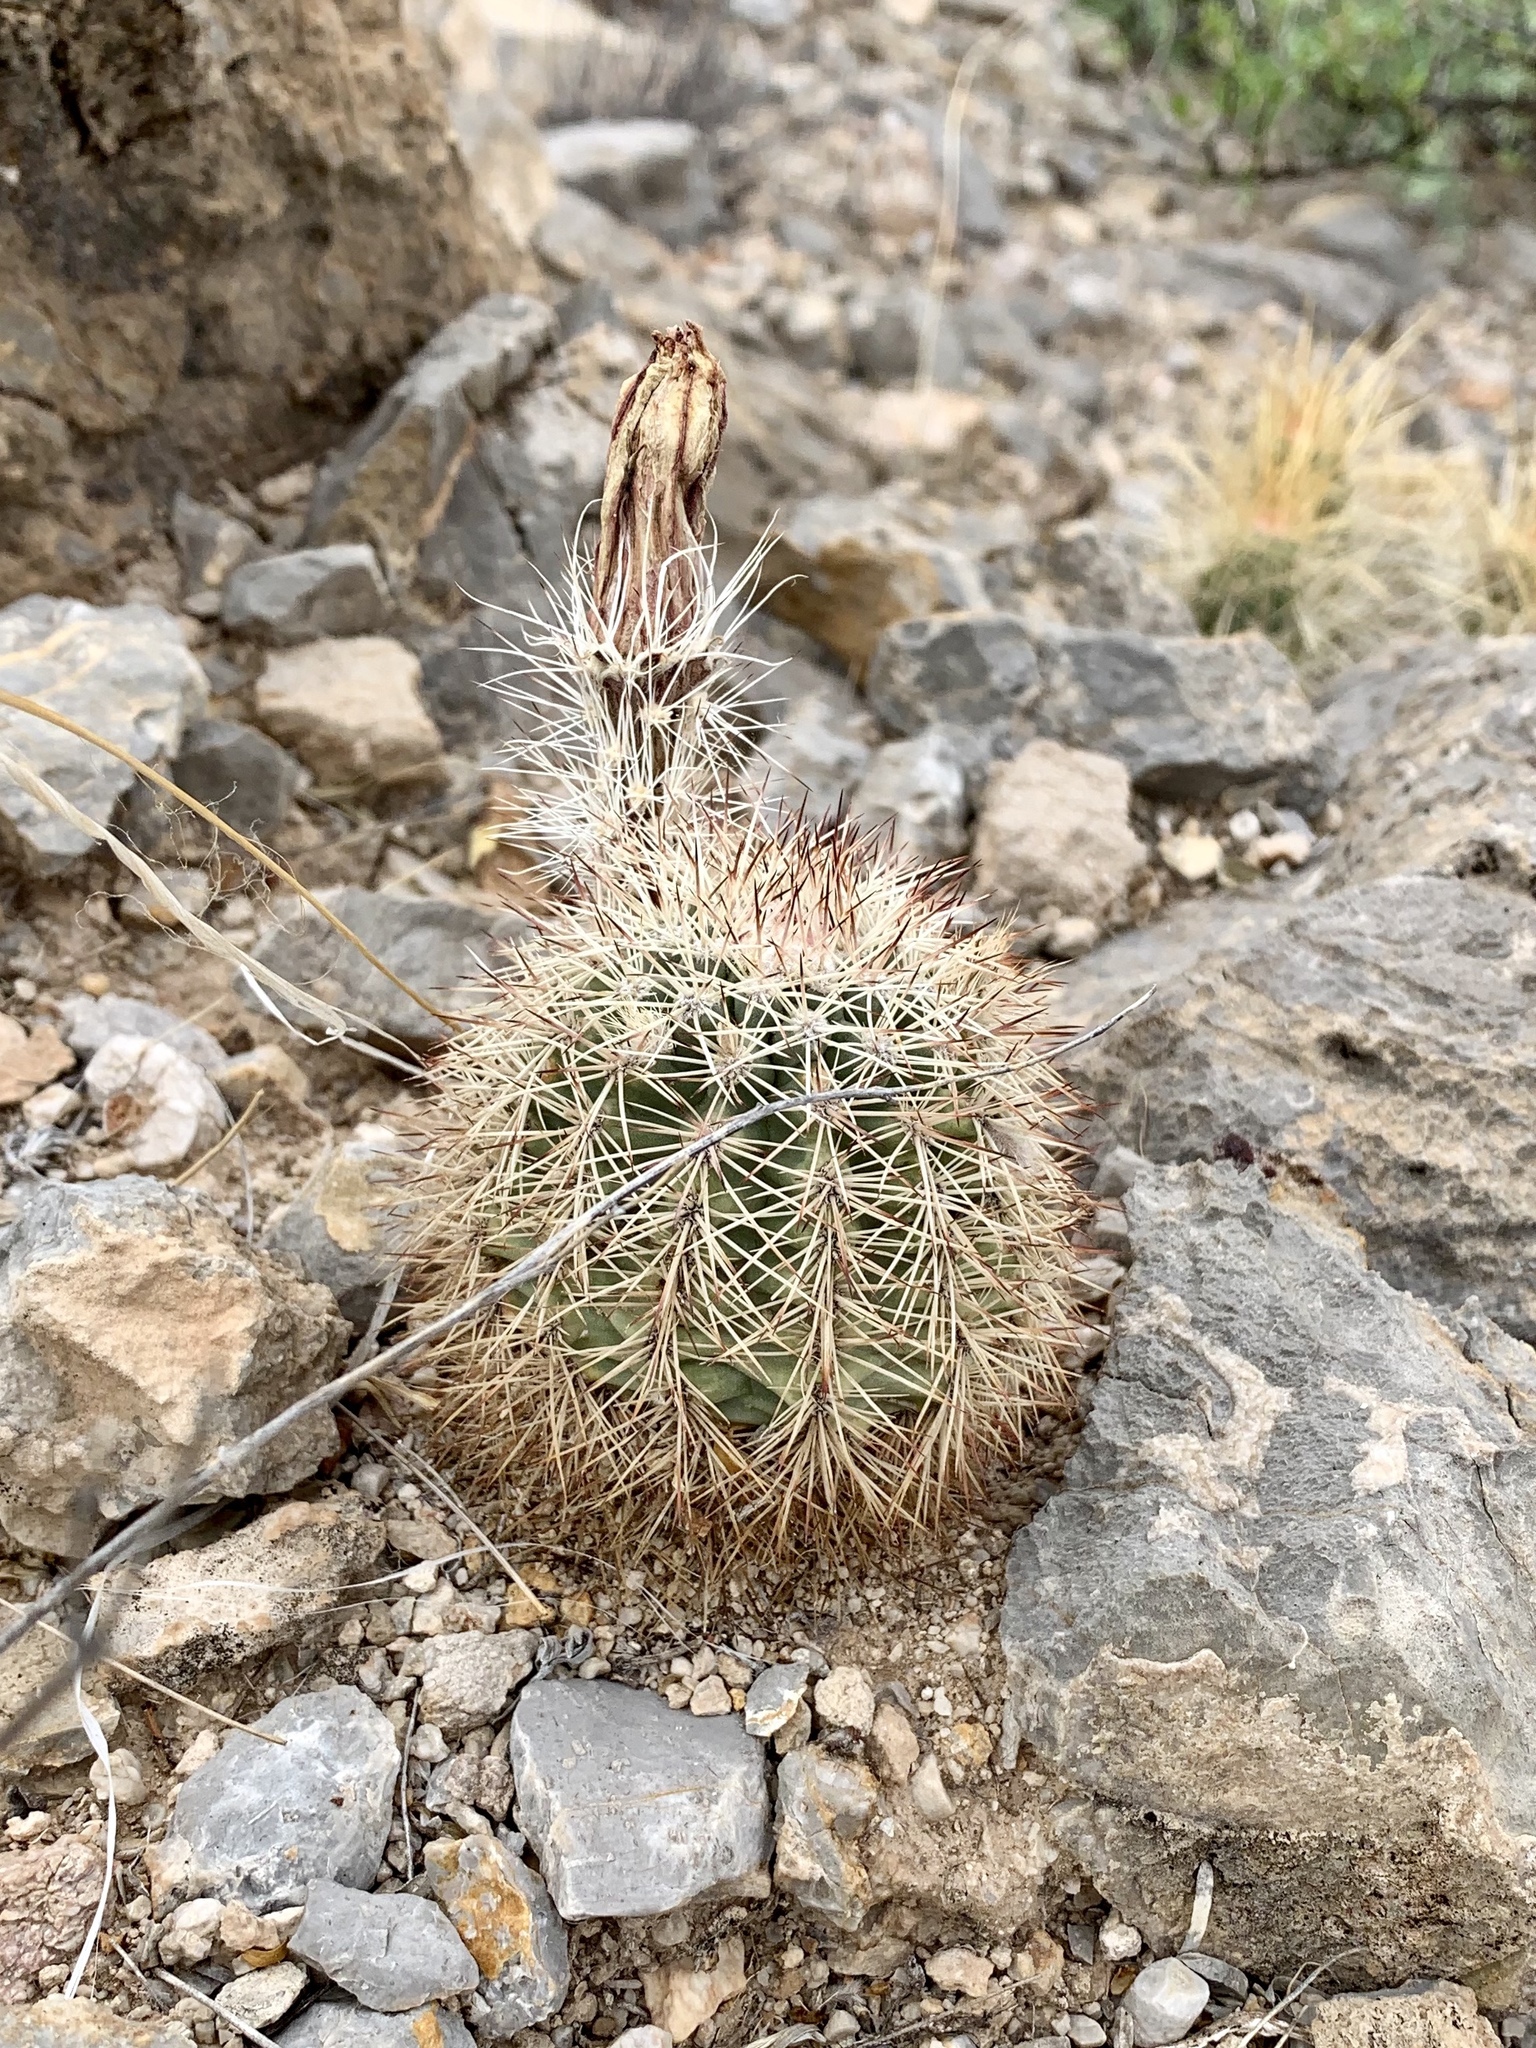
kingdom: Plantae
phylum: Tracheophyta
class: Magnoliopsida
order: Caryophyllales
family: Cactaceae
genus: Echinocereus
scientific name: Echinocereus dasyacanthus
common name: Spiny hedgehog cactus
